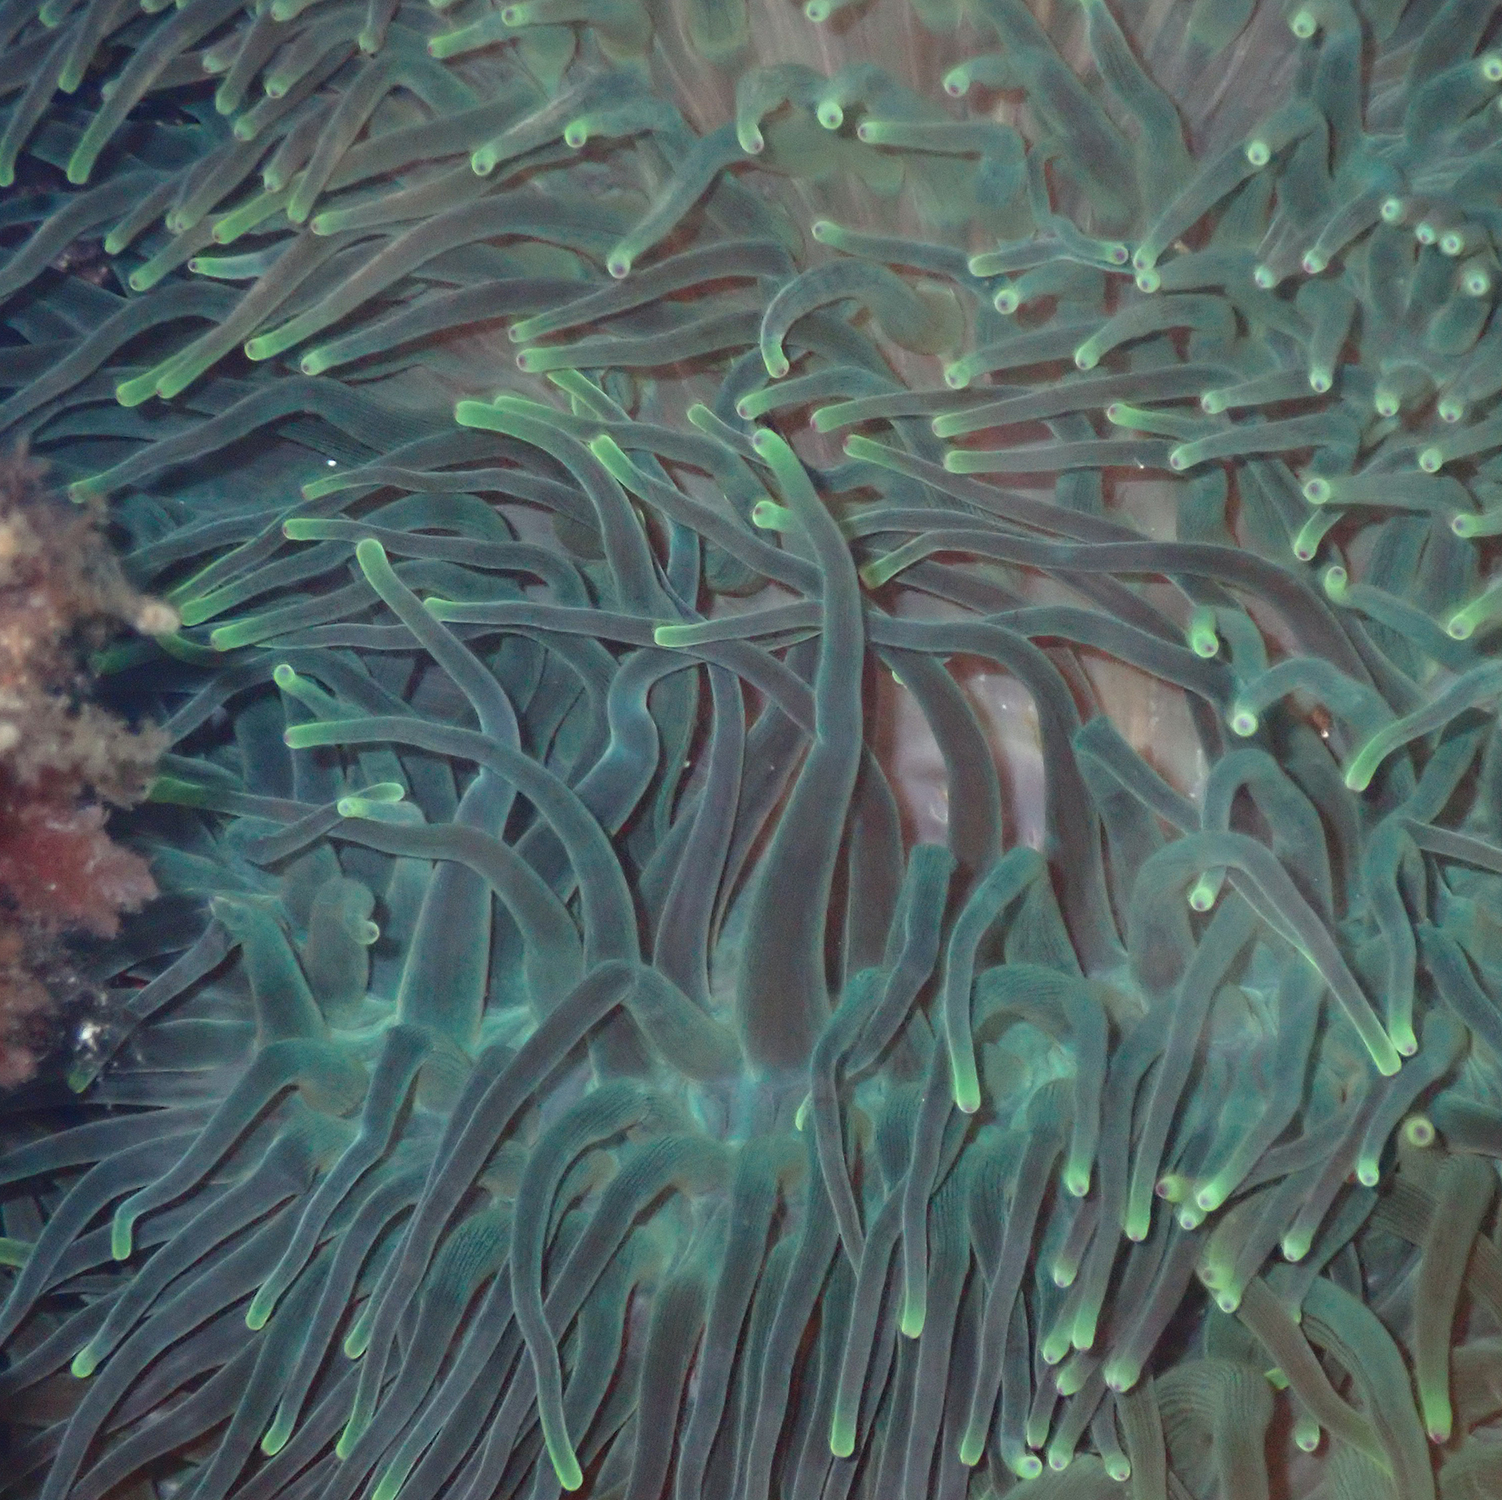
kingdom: Animalia
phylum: Cnidaria
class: Anthozoa
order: Actiniaria
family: Actiniidae
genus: Entacmaea
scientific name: Entacmaea quadricolor
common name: Bulb tentacle sea anemone
